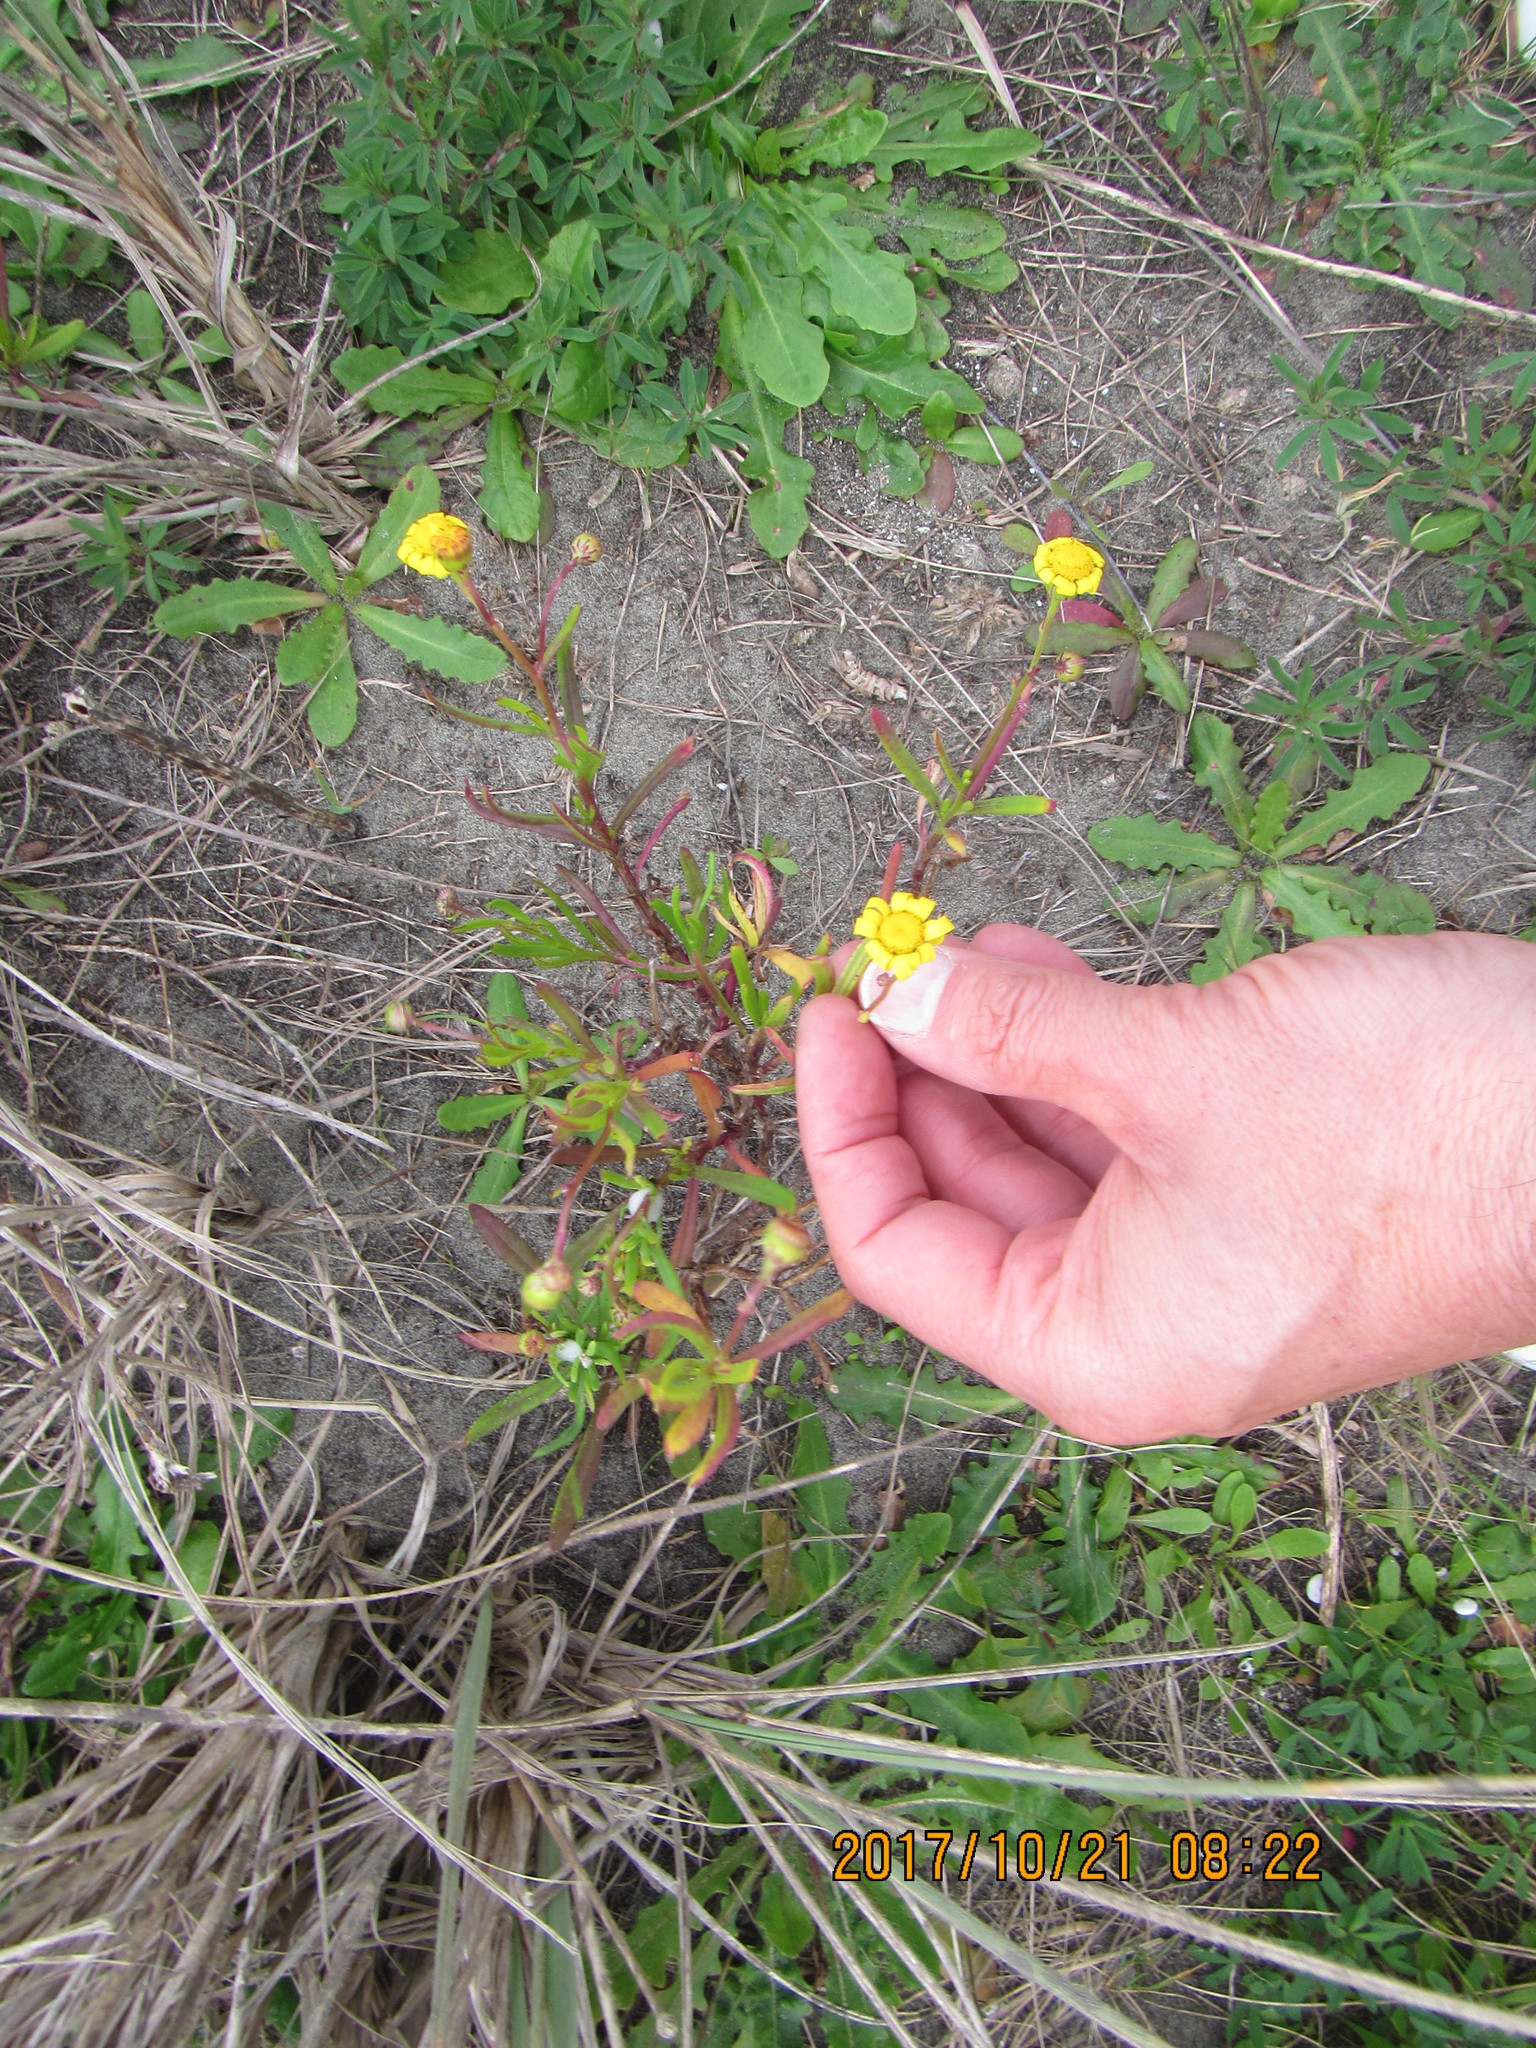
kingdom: Plantae
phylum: Tracheophyta
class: Magnoliopsida
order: Asterales
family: Asteraceae
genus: Senecio
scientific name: Senecio skirrhodon
